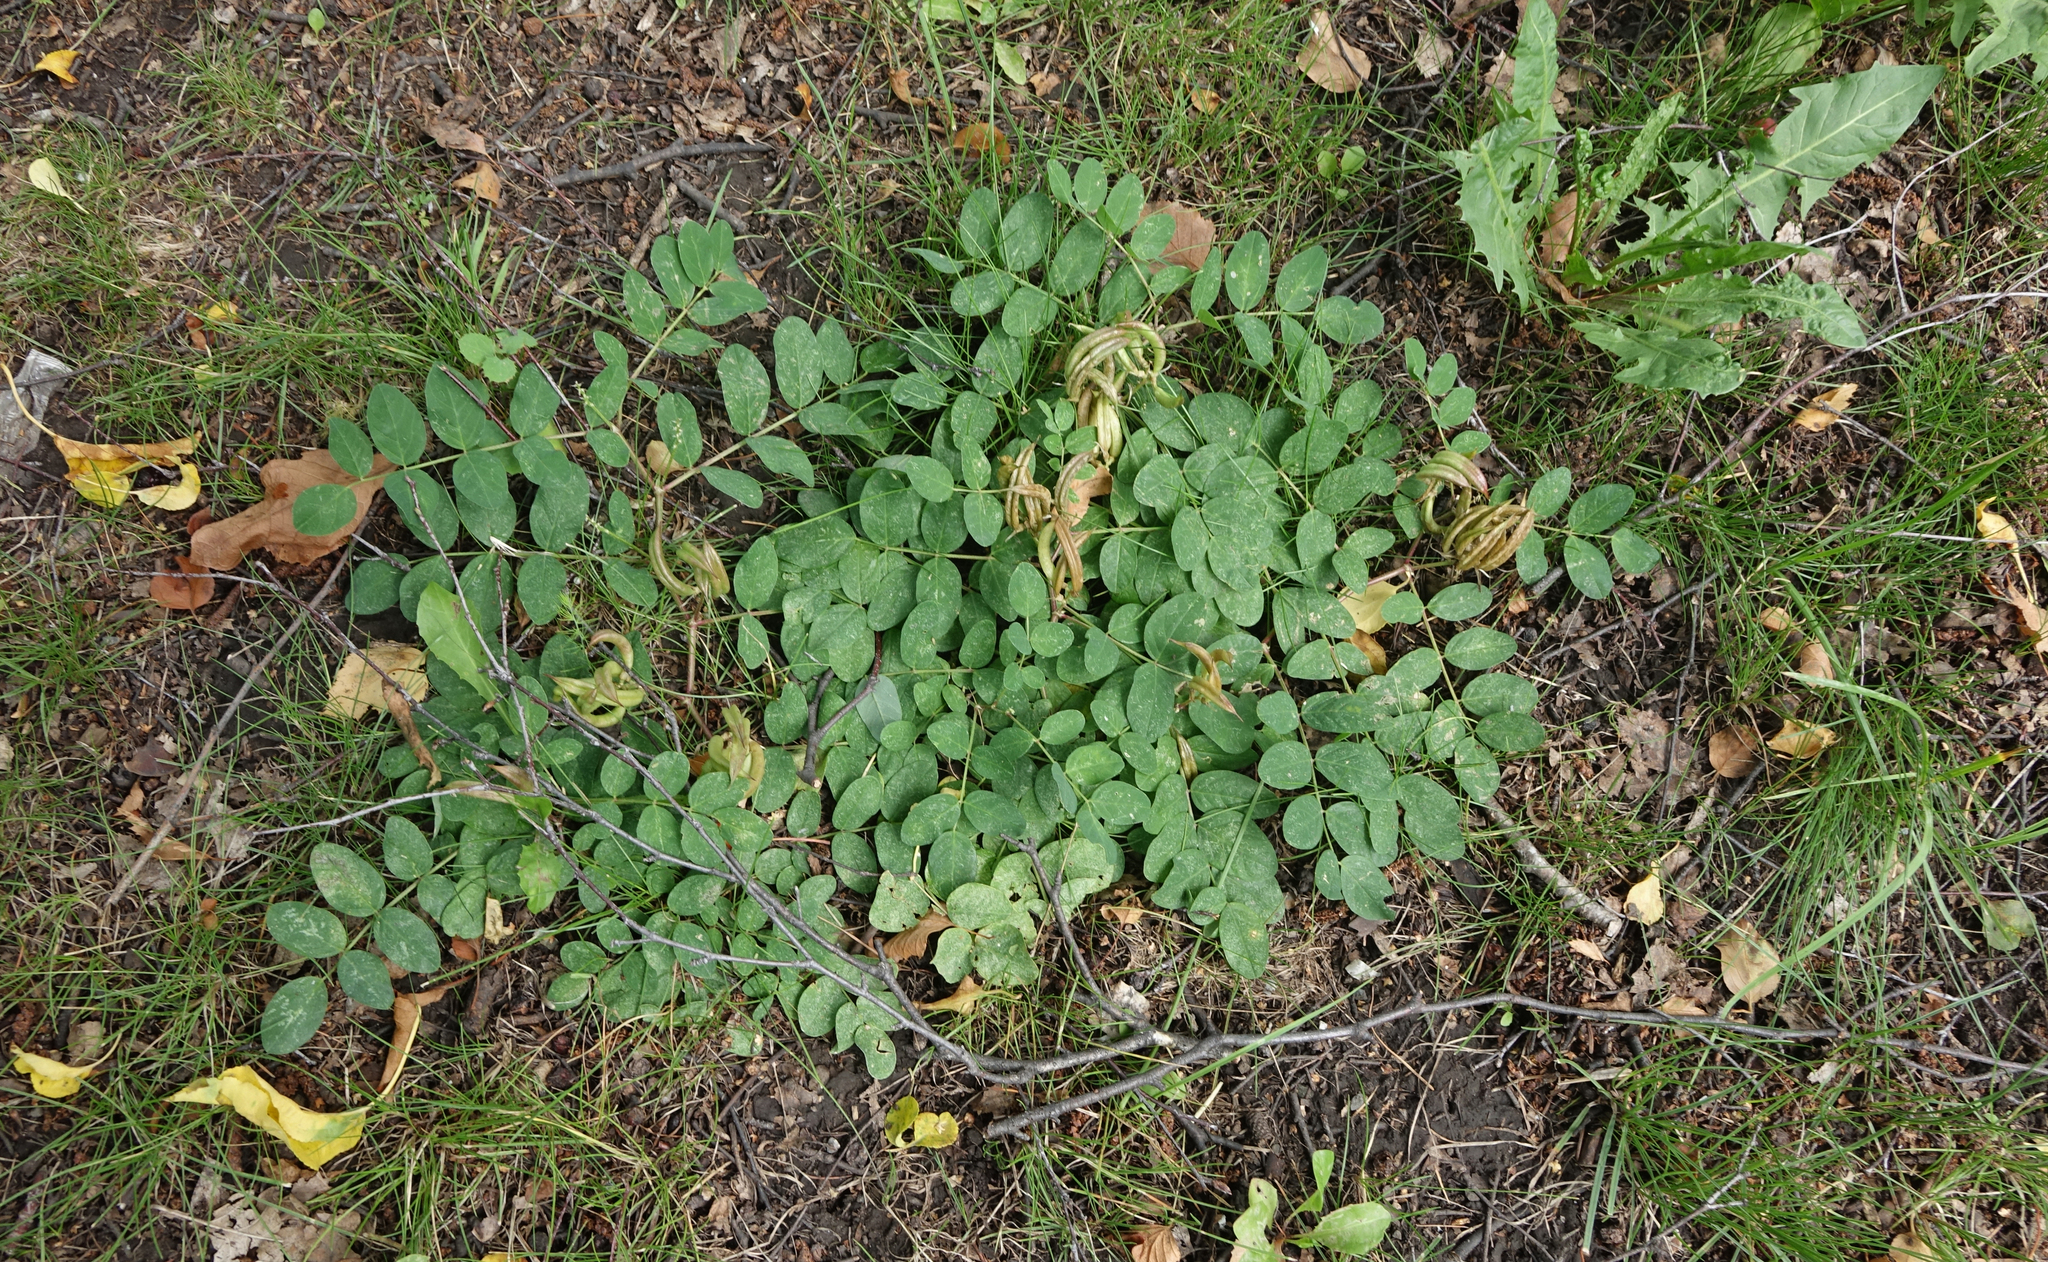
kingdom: Plantae
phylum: Tracheophyta
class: Magnoliopsida
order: Fabales
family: Fabaceae
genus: Astragalus
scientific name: Astragalus glycyphyllos
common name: Wild liquorice
